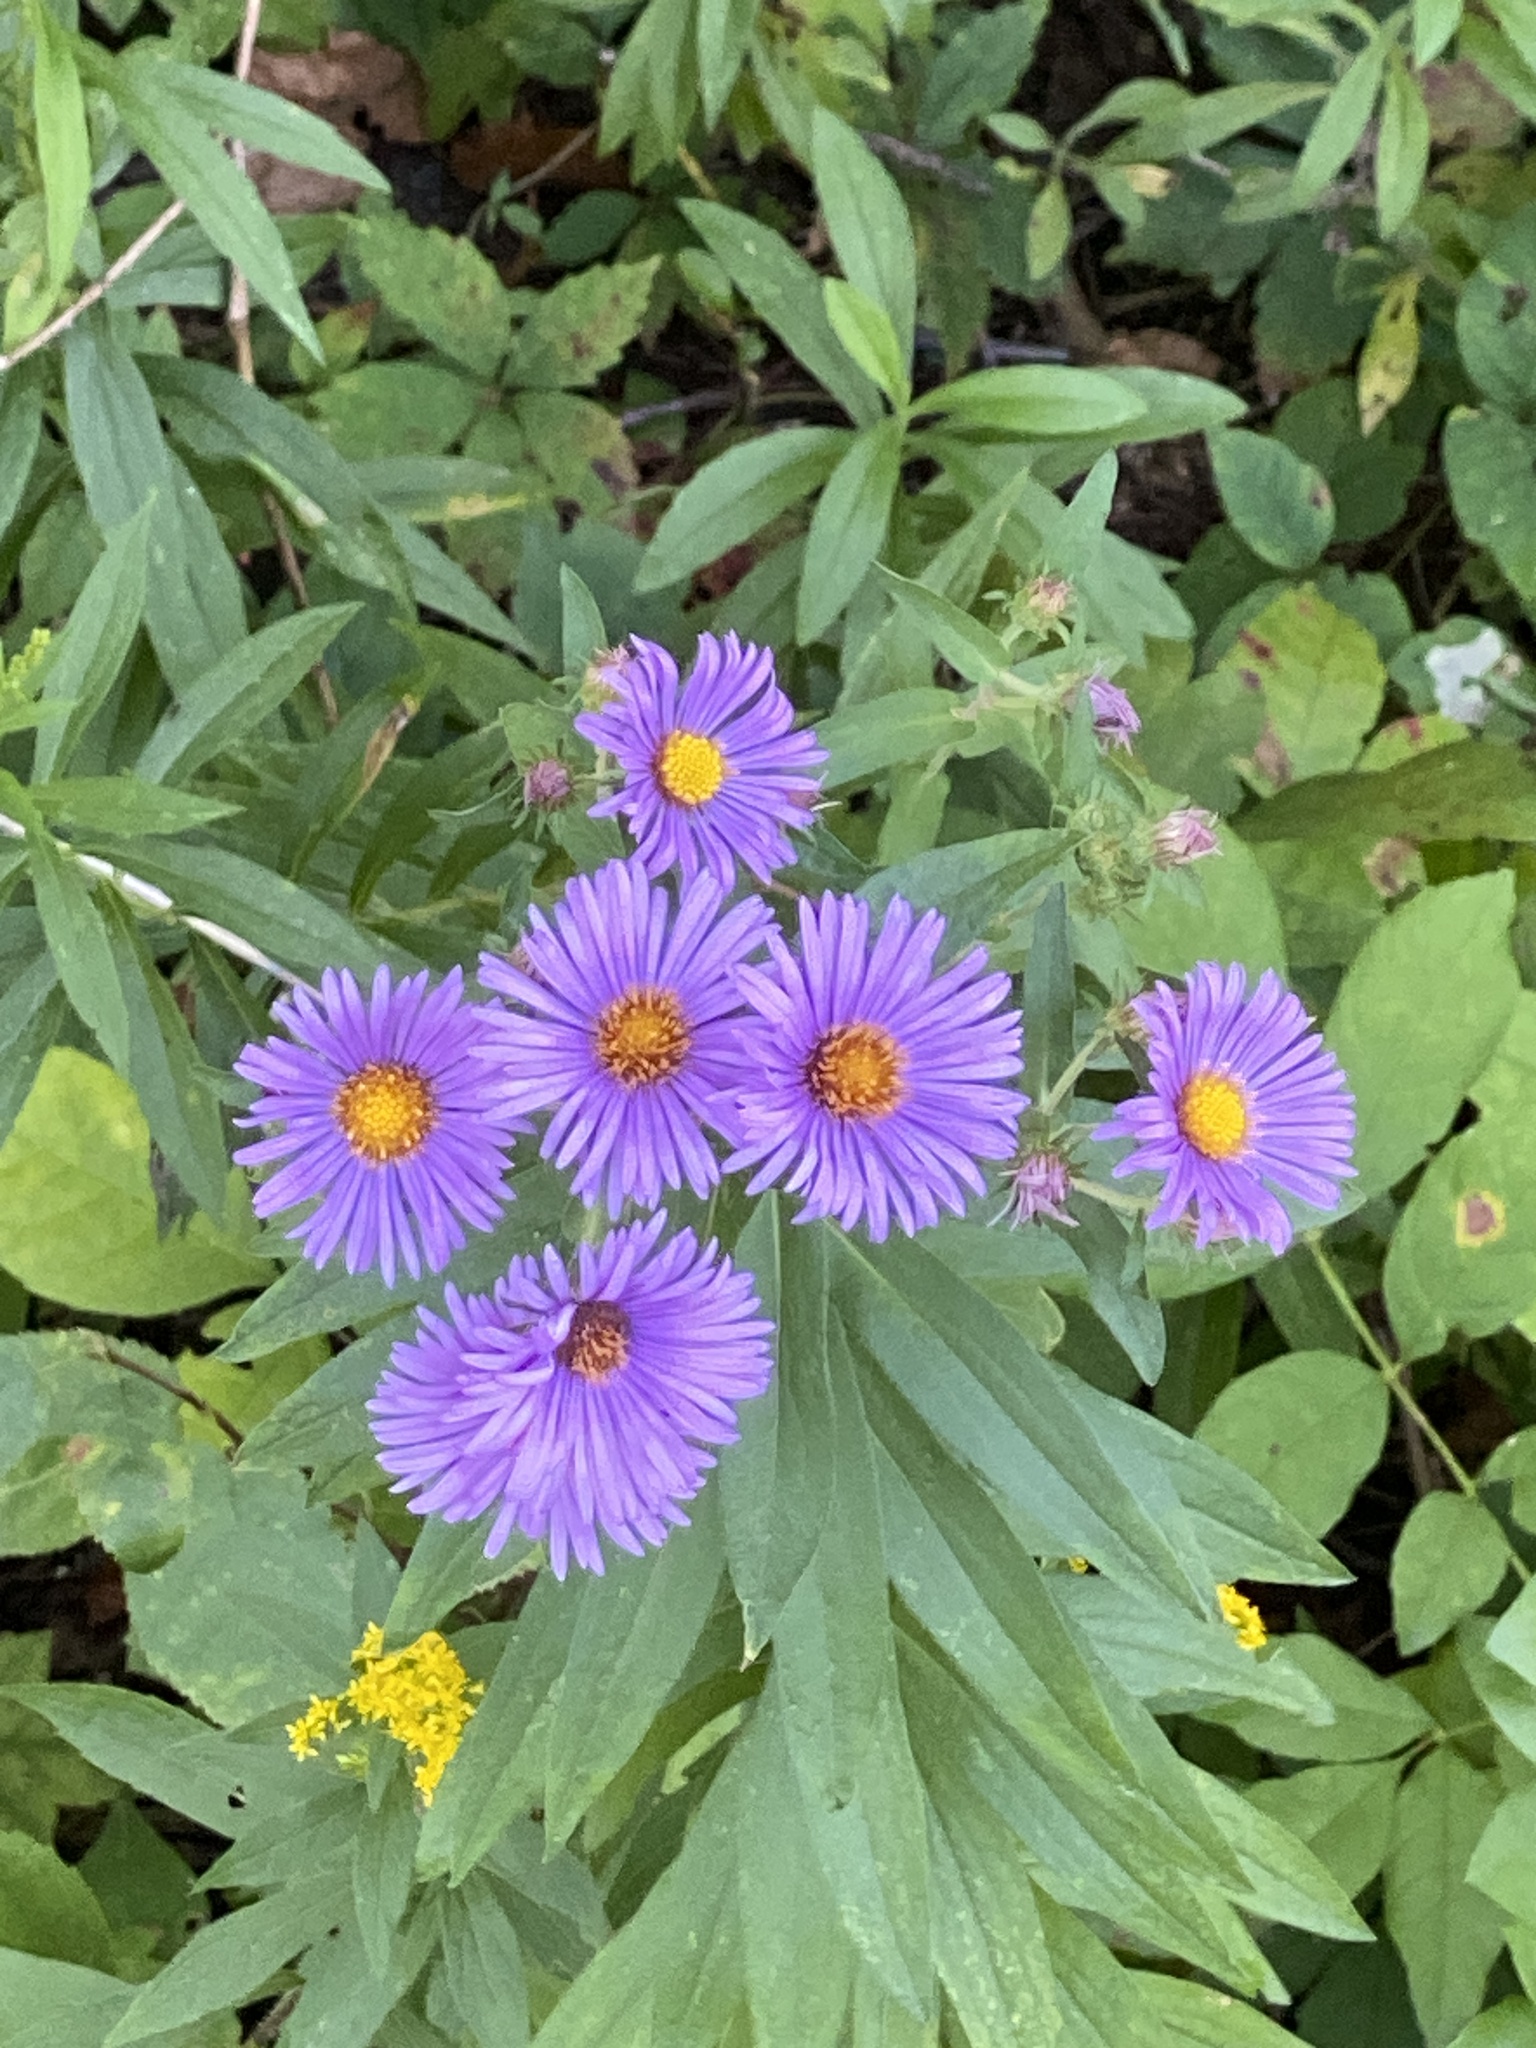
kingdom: Plantae
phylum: Tracheophyta
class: Magnoliopsida
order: Asterales
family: Asteraceae
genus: Symphyotrichum
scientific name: Symphyotrichum novae-angliae
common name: Michaelmas daisy
